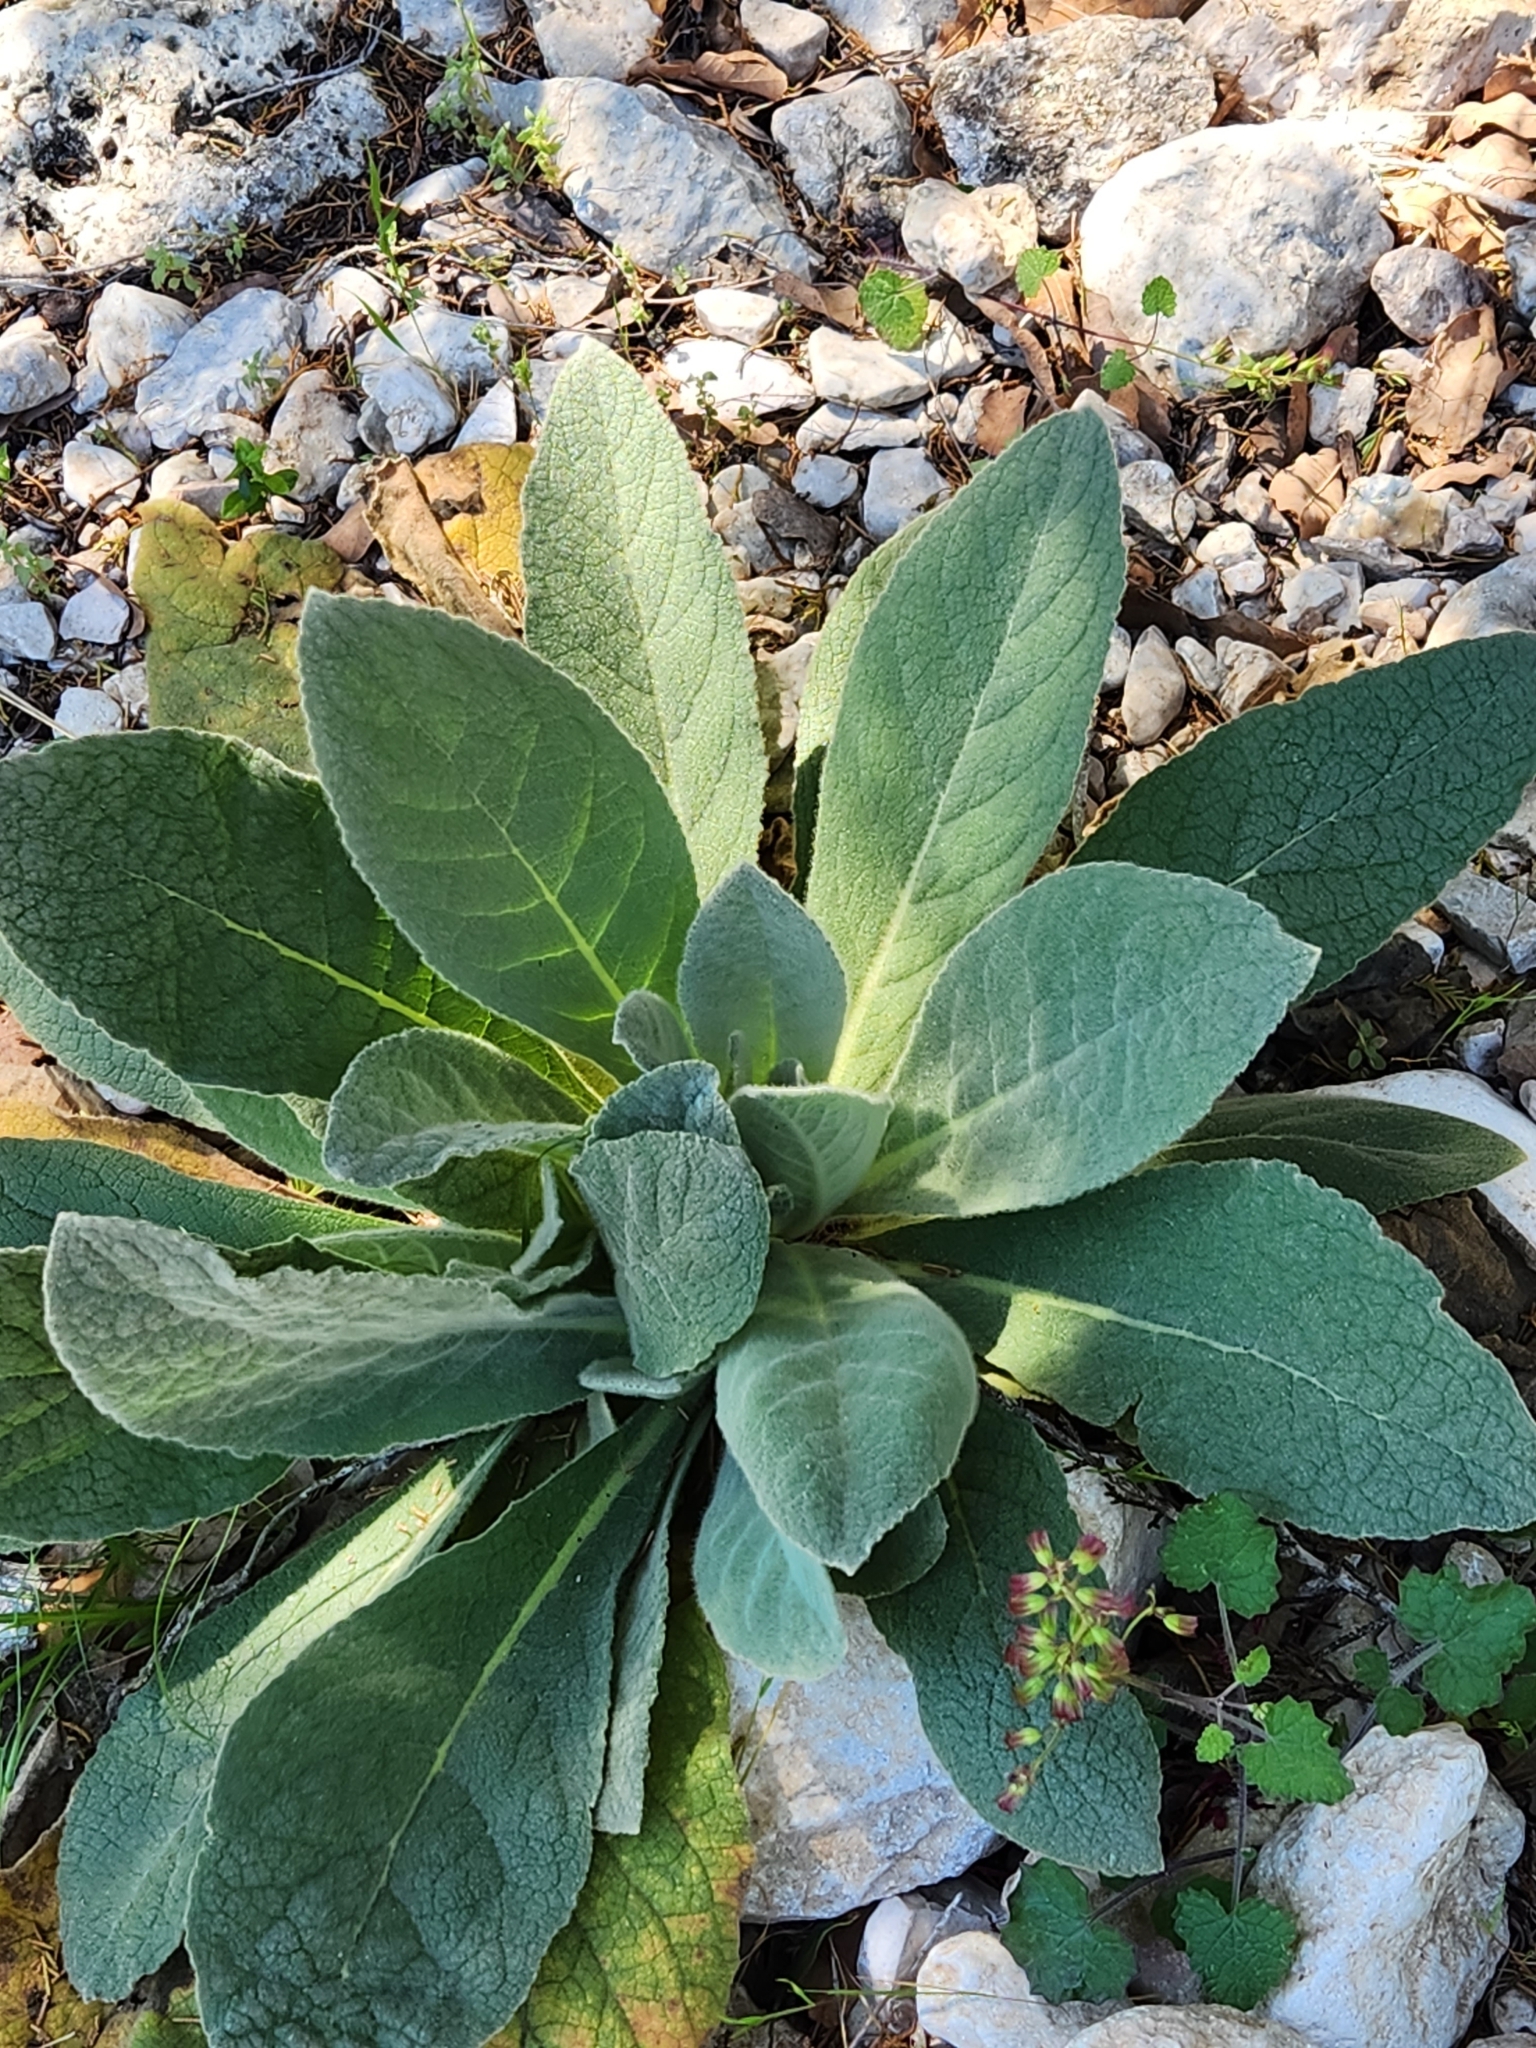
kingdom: Plantae
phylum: Tracheophyta
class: Magnoliopsida
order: Lamiales
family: Scrophulariaceae
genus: Verbascum
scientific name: Verbascum thapsus
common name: Common mullein
